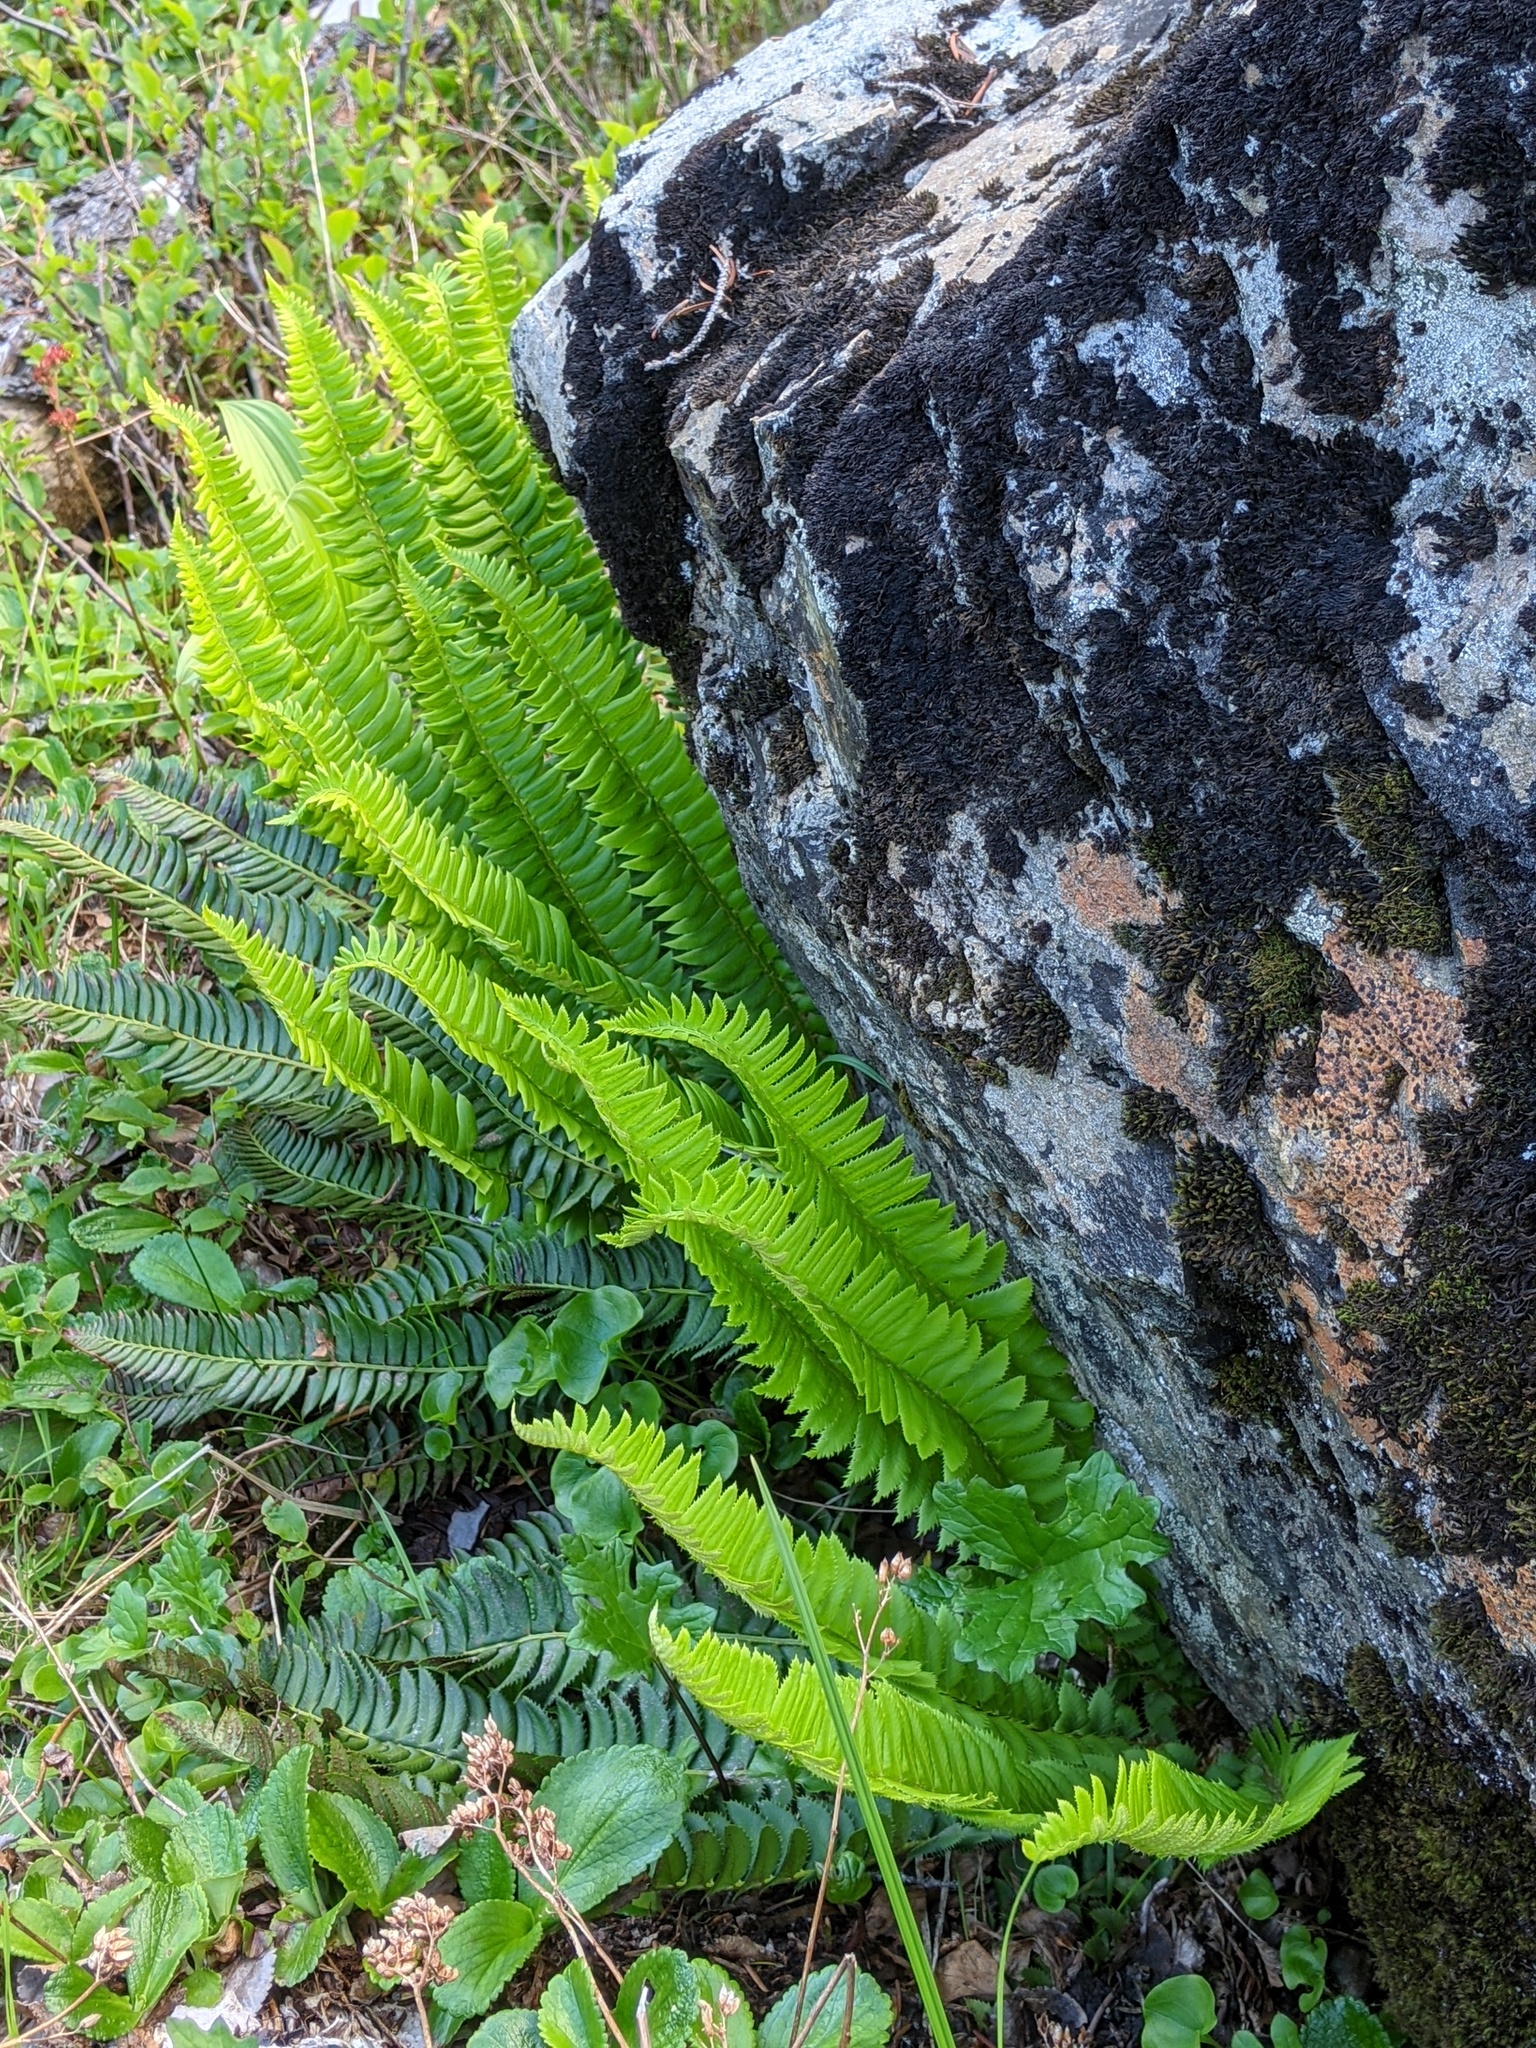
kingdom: Plantae
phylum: Tracheophyta
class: Polypodiopsida
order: Polypodiales
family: Dryopteridaceae
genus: Polystichum
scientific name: Polystichum lonchitis
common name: Holly fern
